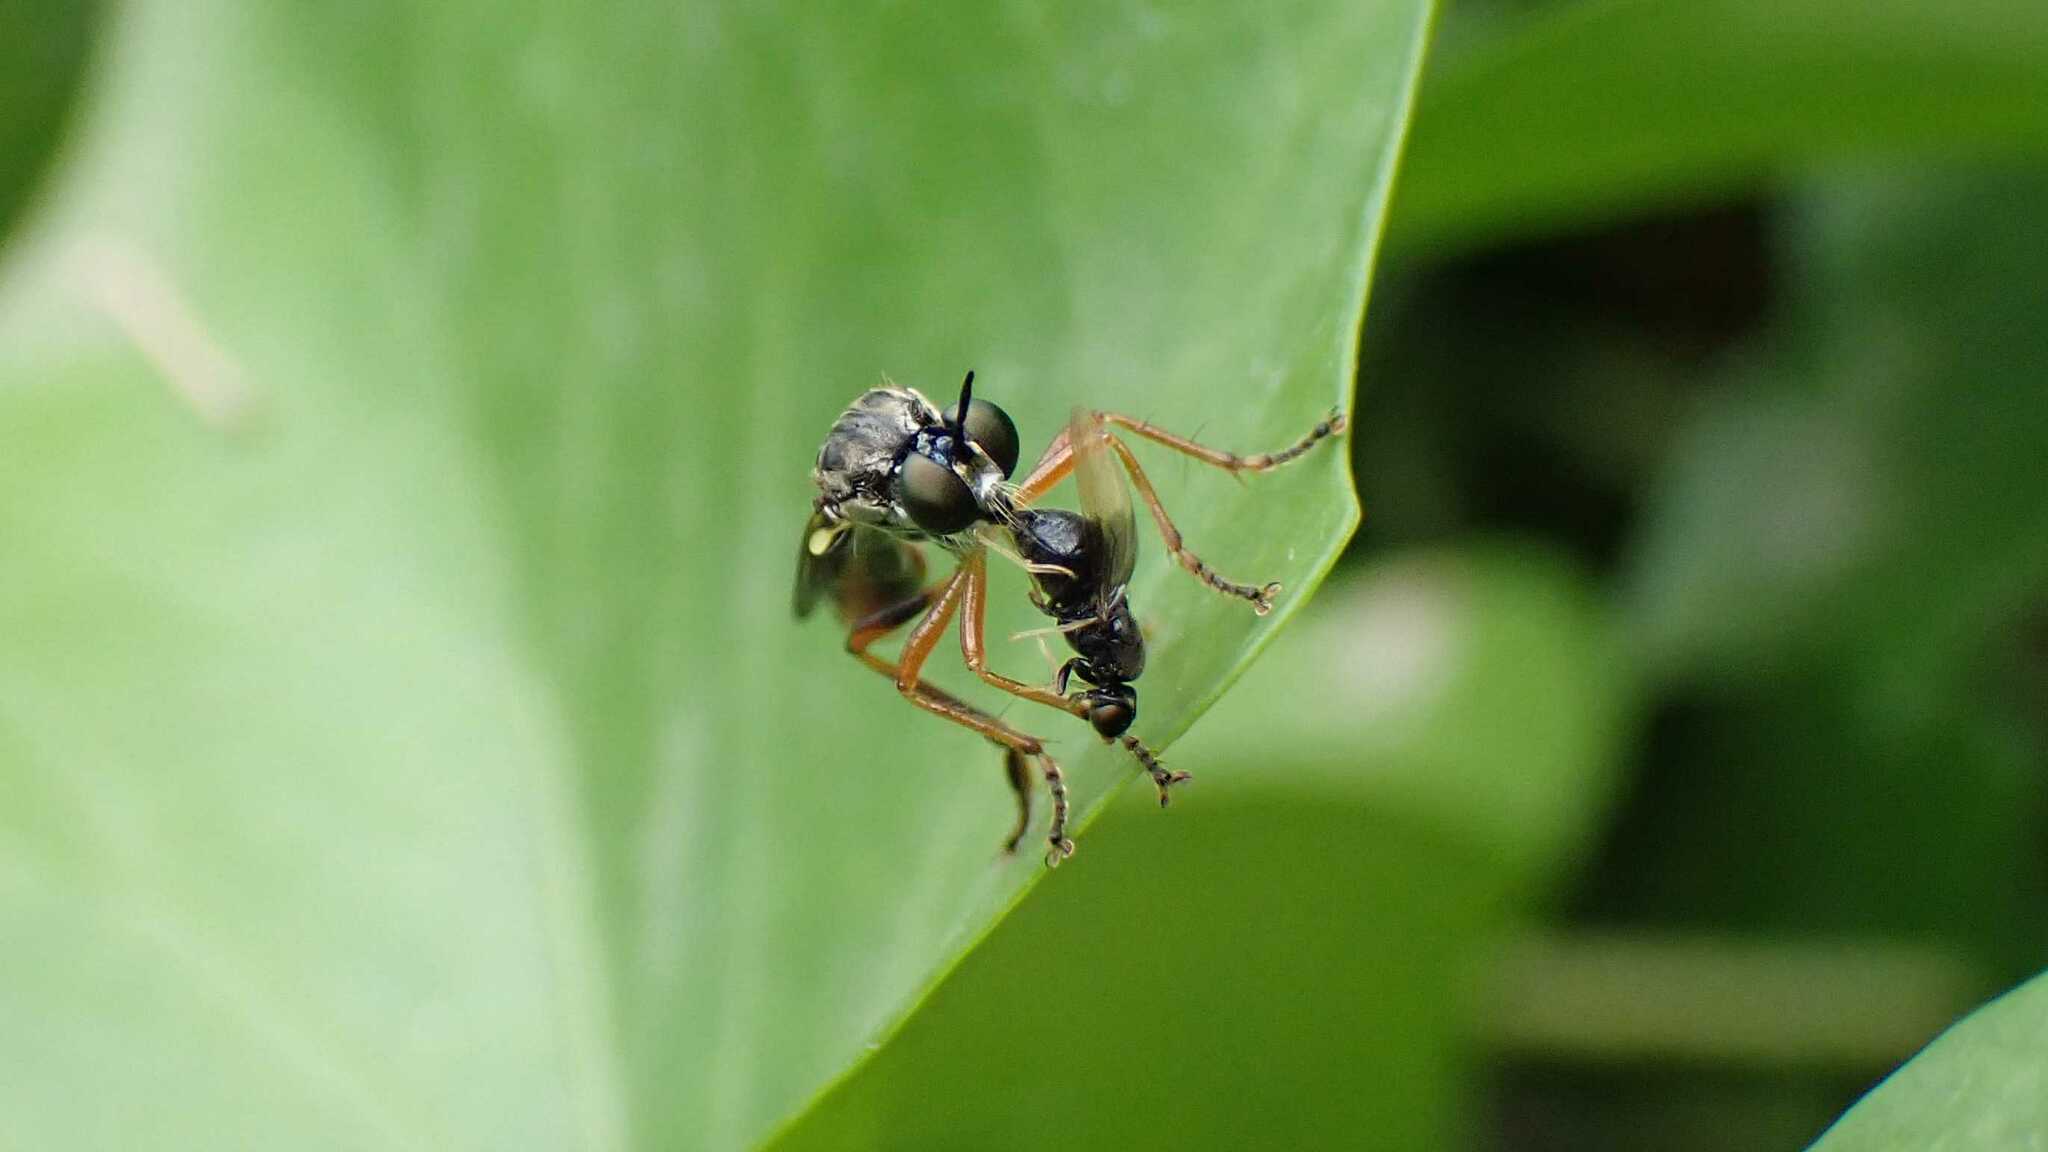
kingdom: Animalia
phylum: Arthropoda
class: Insecta
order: Diptera
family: Asilidae
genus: Dioctria
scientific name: Dioctria hyalipennis
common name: Stripe-legged robberfly
